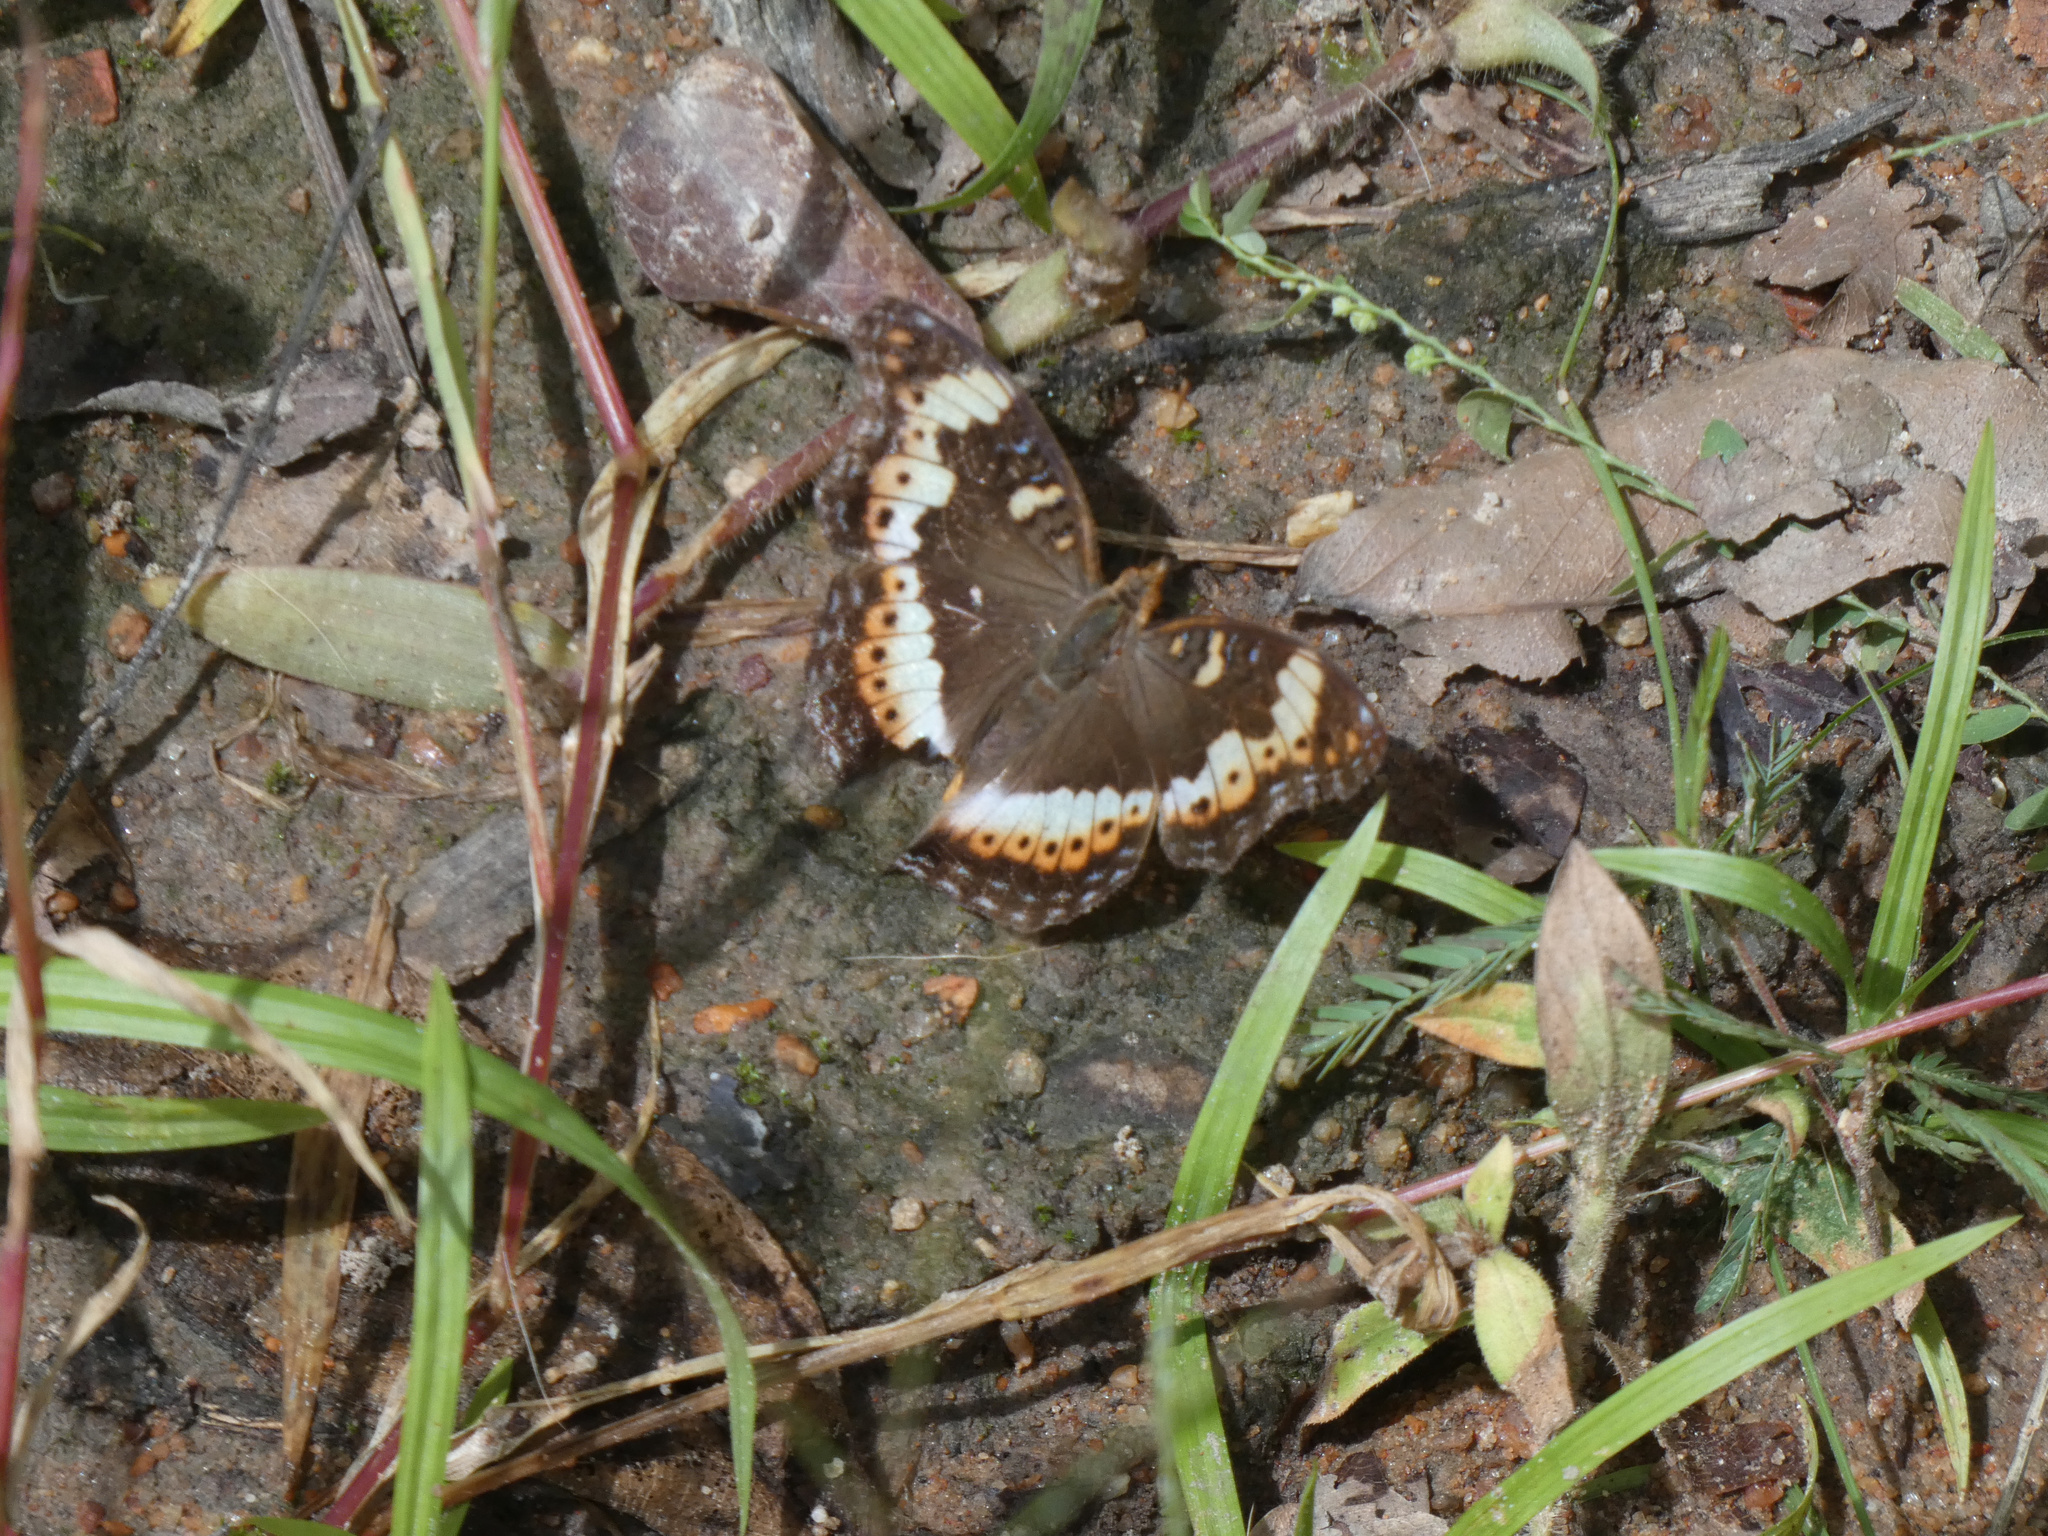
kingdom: Animalia
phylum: Arthropoda
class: Insecta
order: Lepidoptera
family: Nymphalidae
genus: Precis
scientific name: Precis actia
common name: Air commodore
